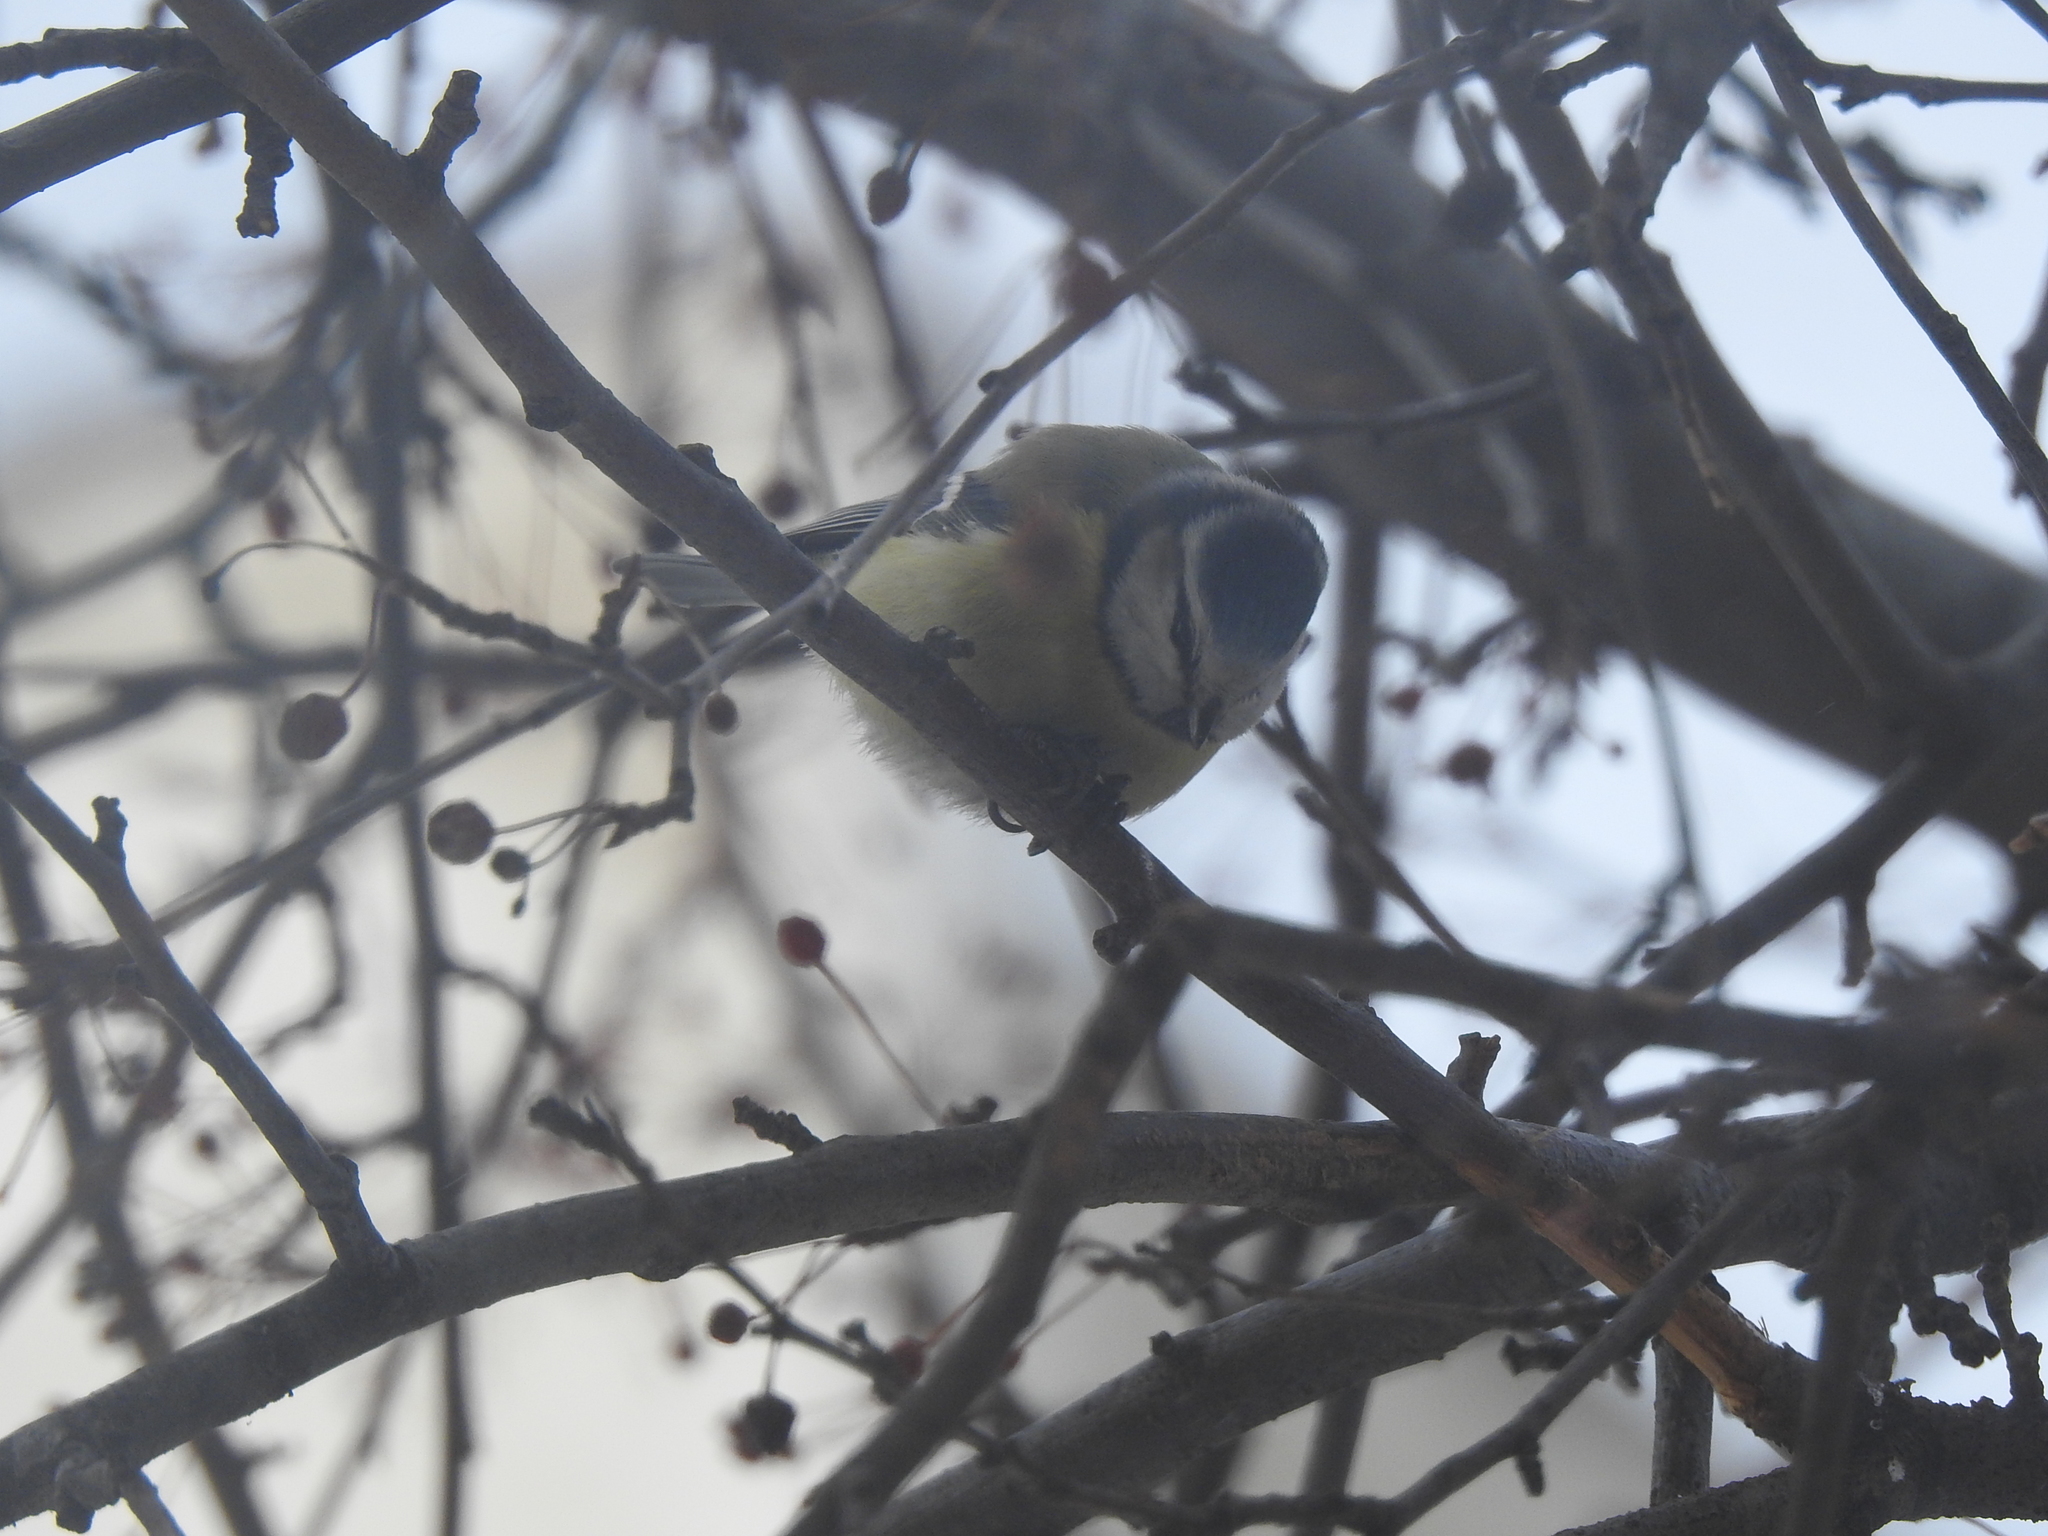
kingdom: Animalia
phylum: Chordata
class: Aves
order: Passeriformes
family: Paridae
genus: Cyanistes
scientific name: Cyanistes caeruleus
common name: Eurasian blue tit
